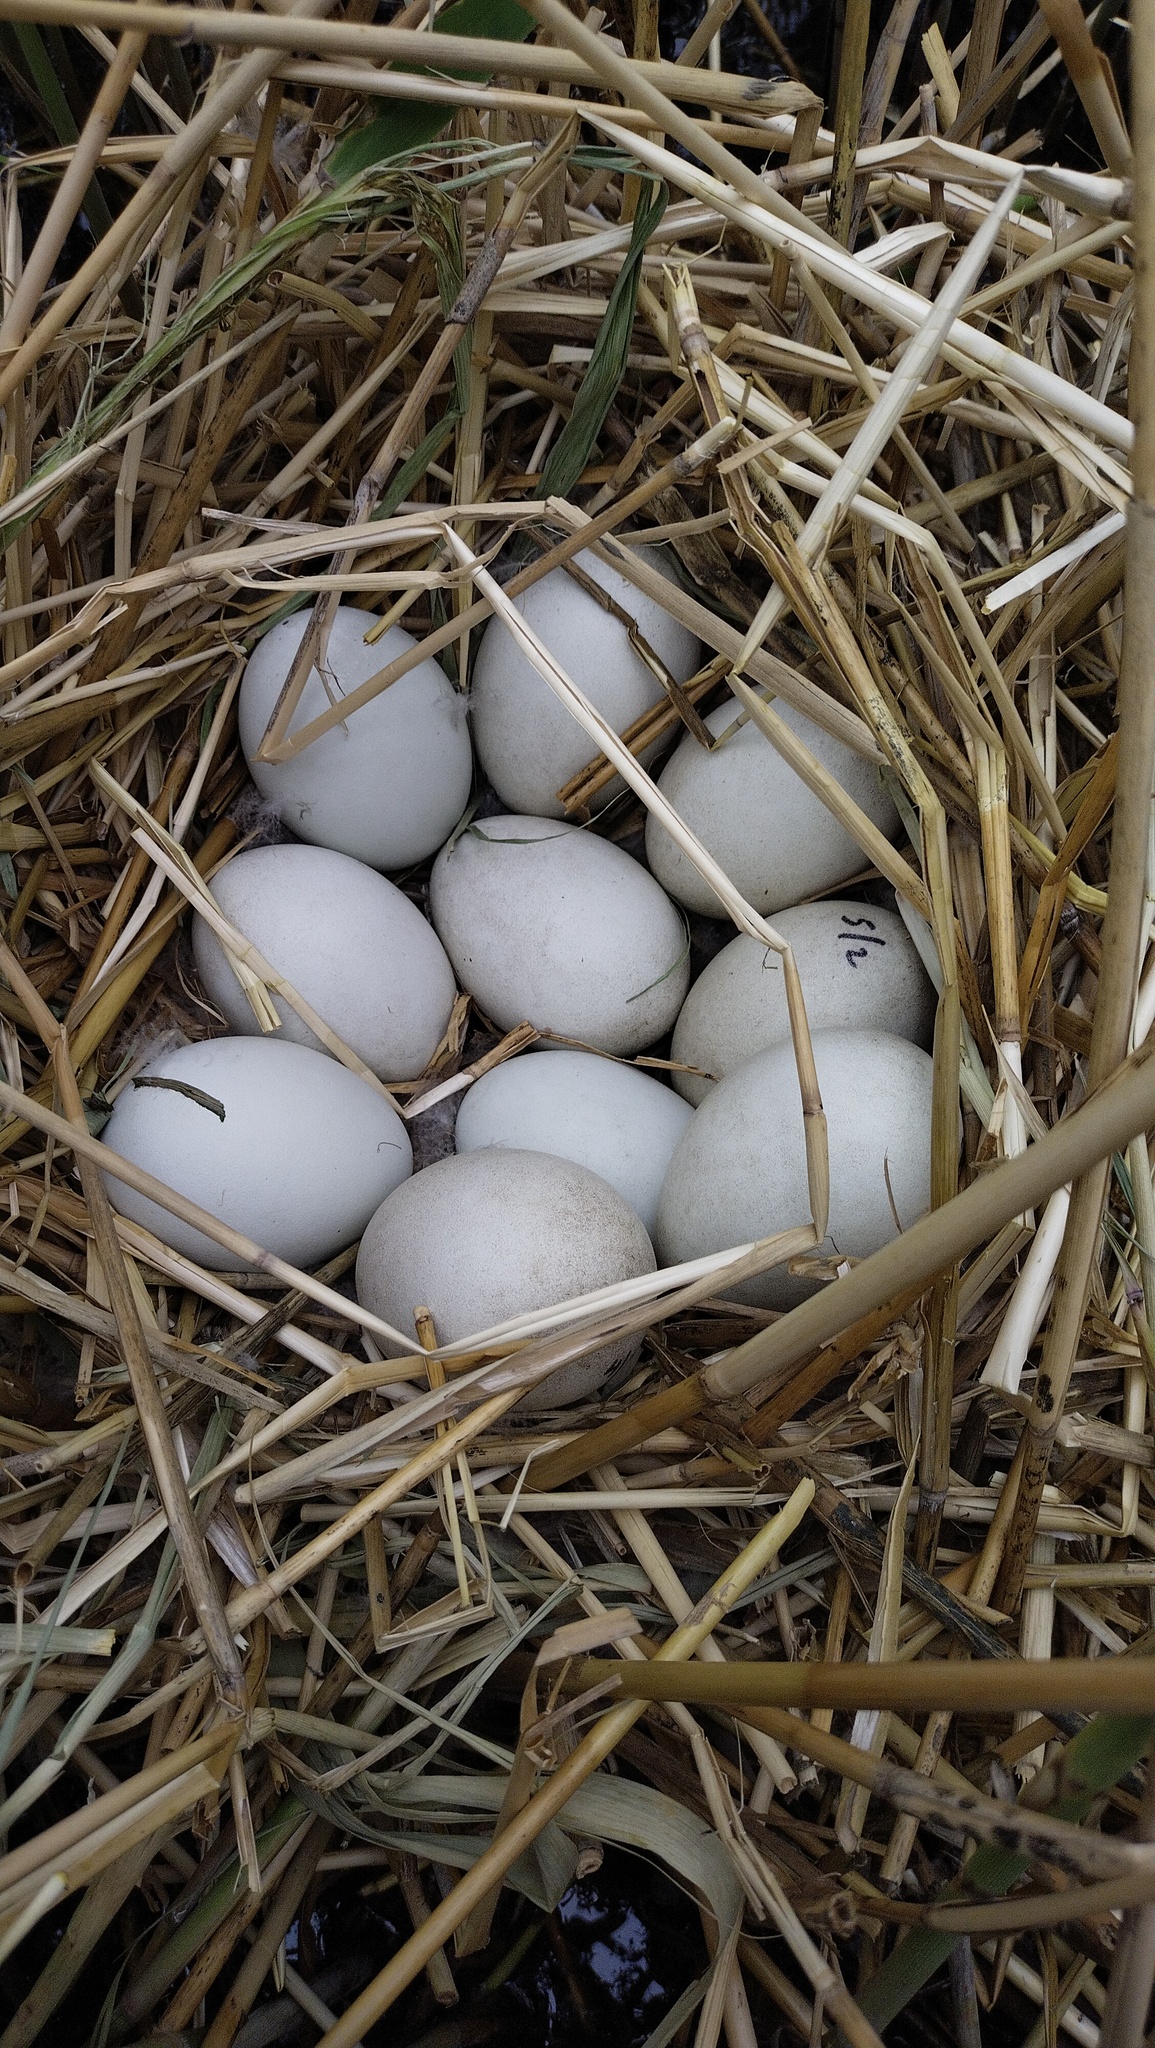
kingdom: Animalia
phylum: Chordata
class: Aves
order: Anseriformes
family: Anatidae
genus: Oxyura
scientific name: Oxyura leucocephala
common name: White-headed duck
